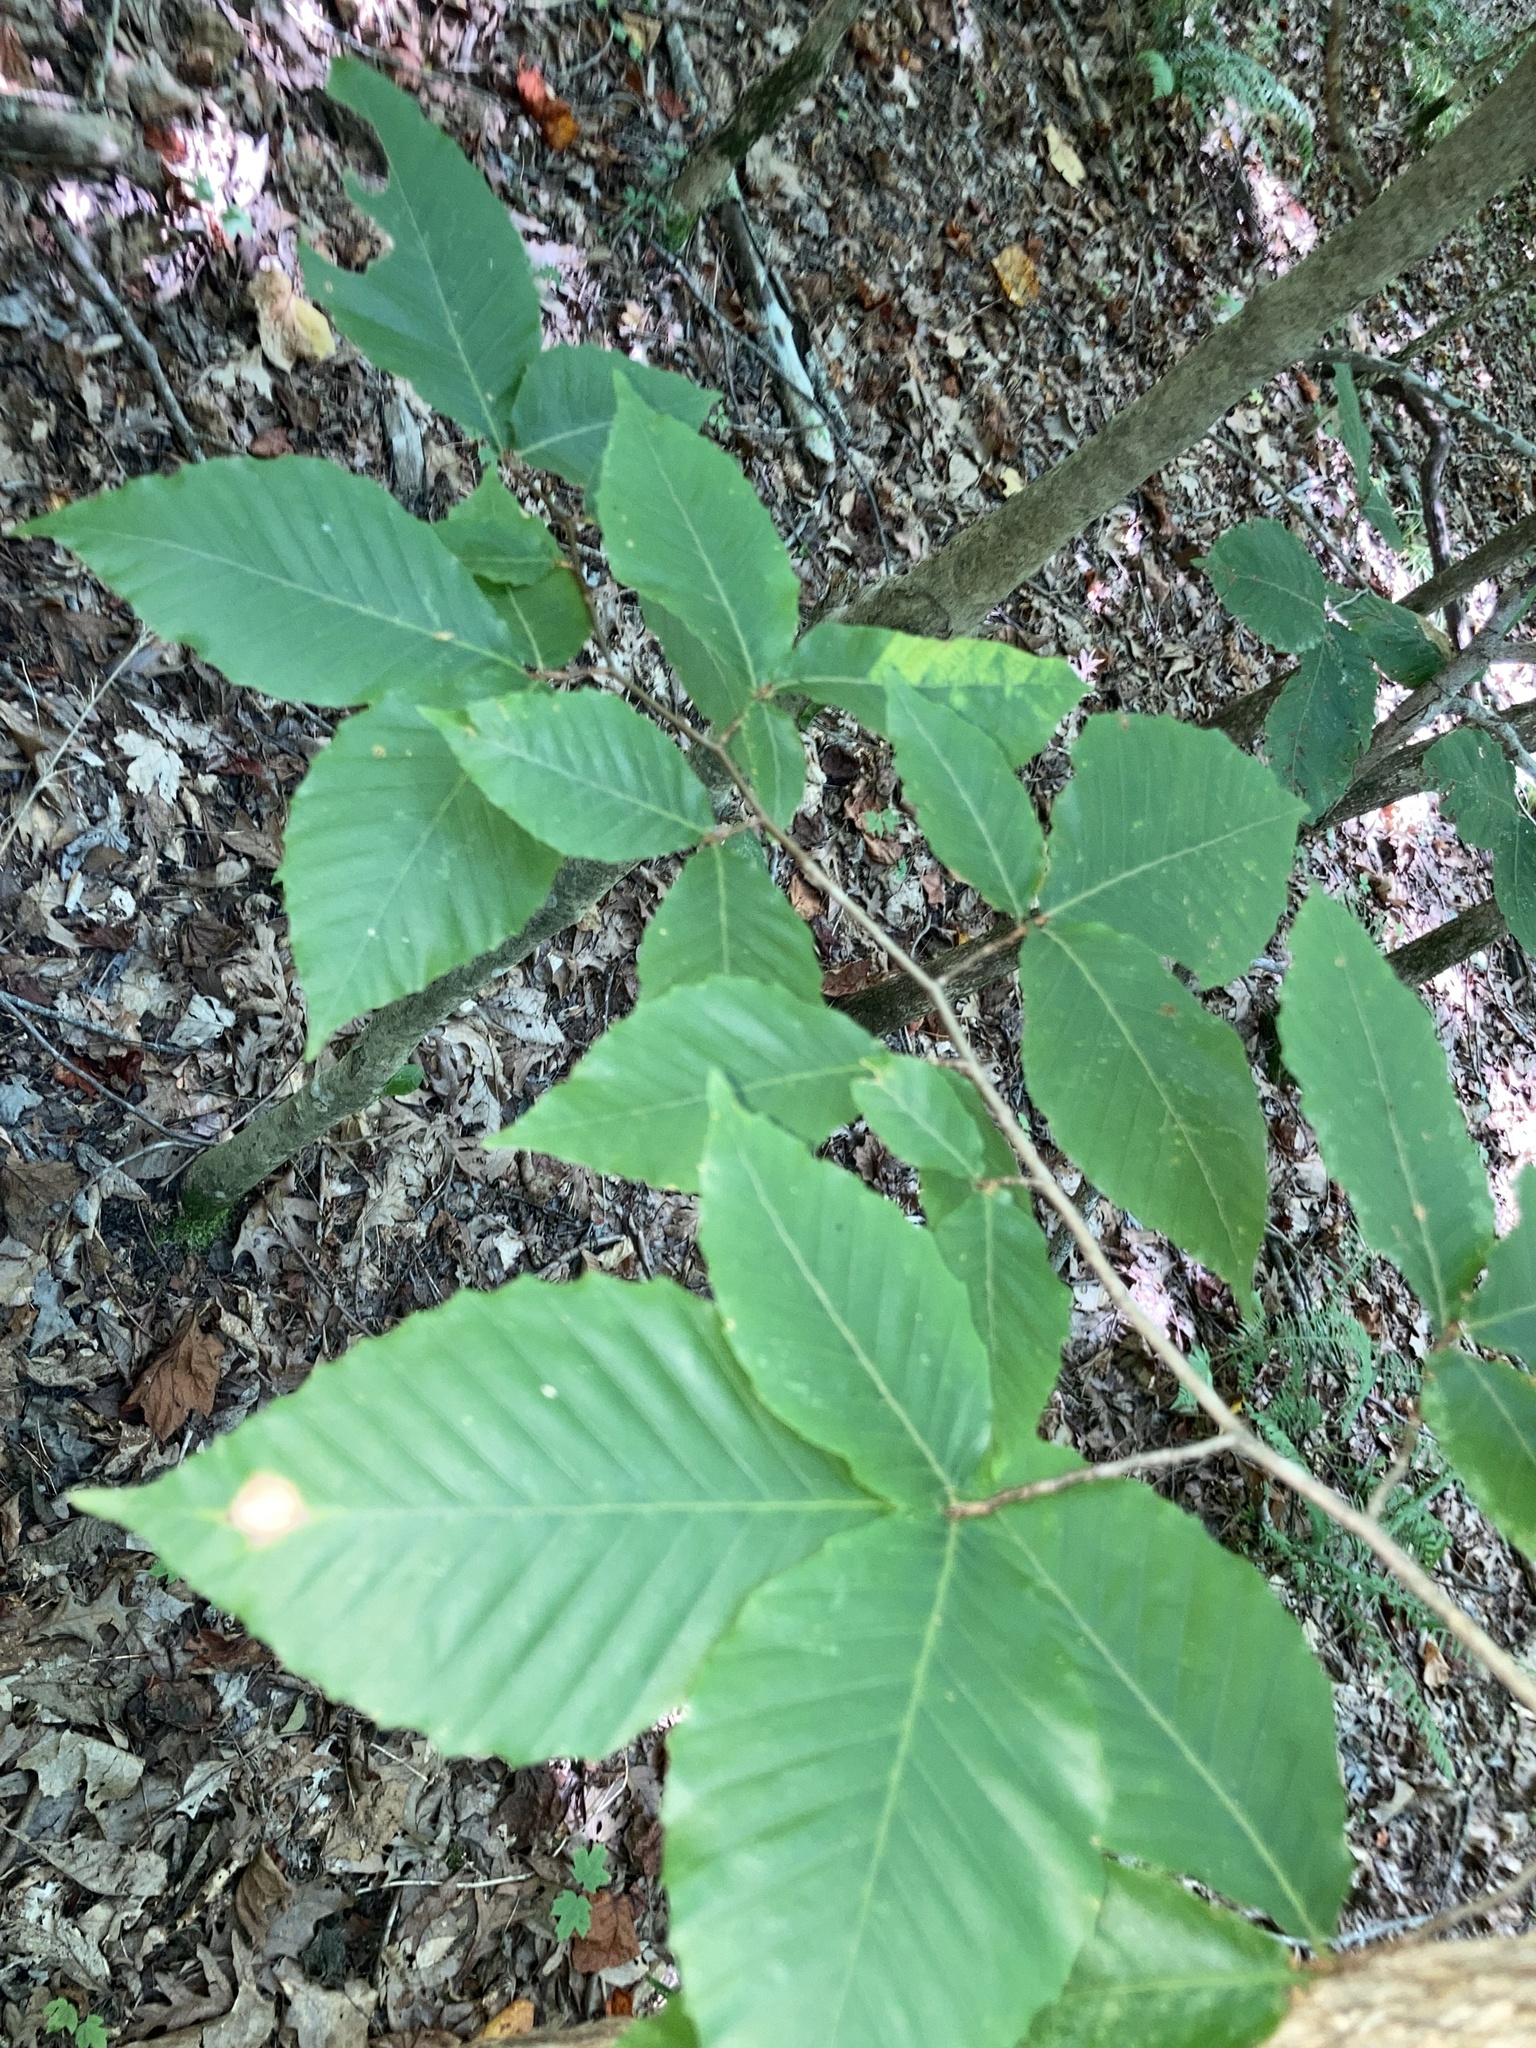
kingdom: Plantae
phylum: Tracheophyta
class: Magnoliopsida
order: Fagales
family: Fagaceae
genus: Fagus
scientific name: Fagus grandifolia
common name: American beech
